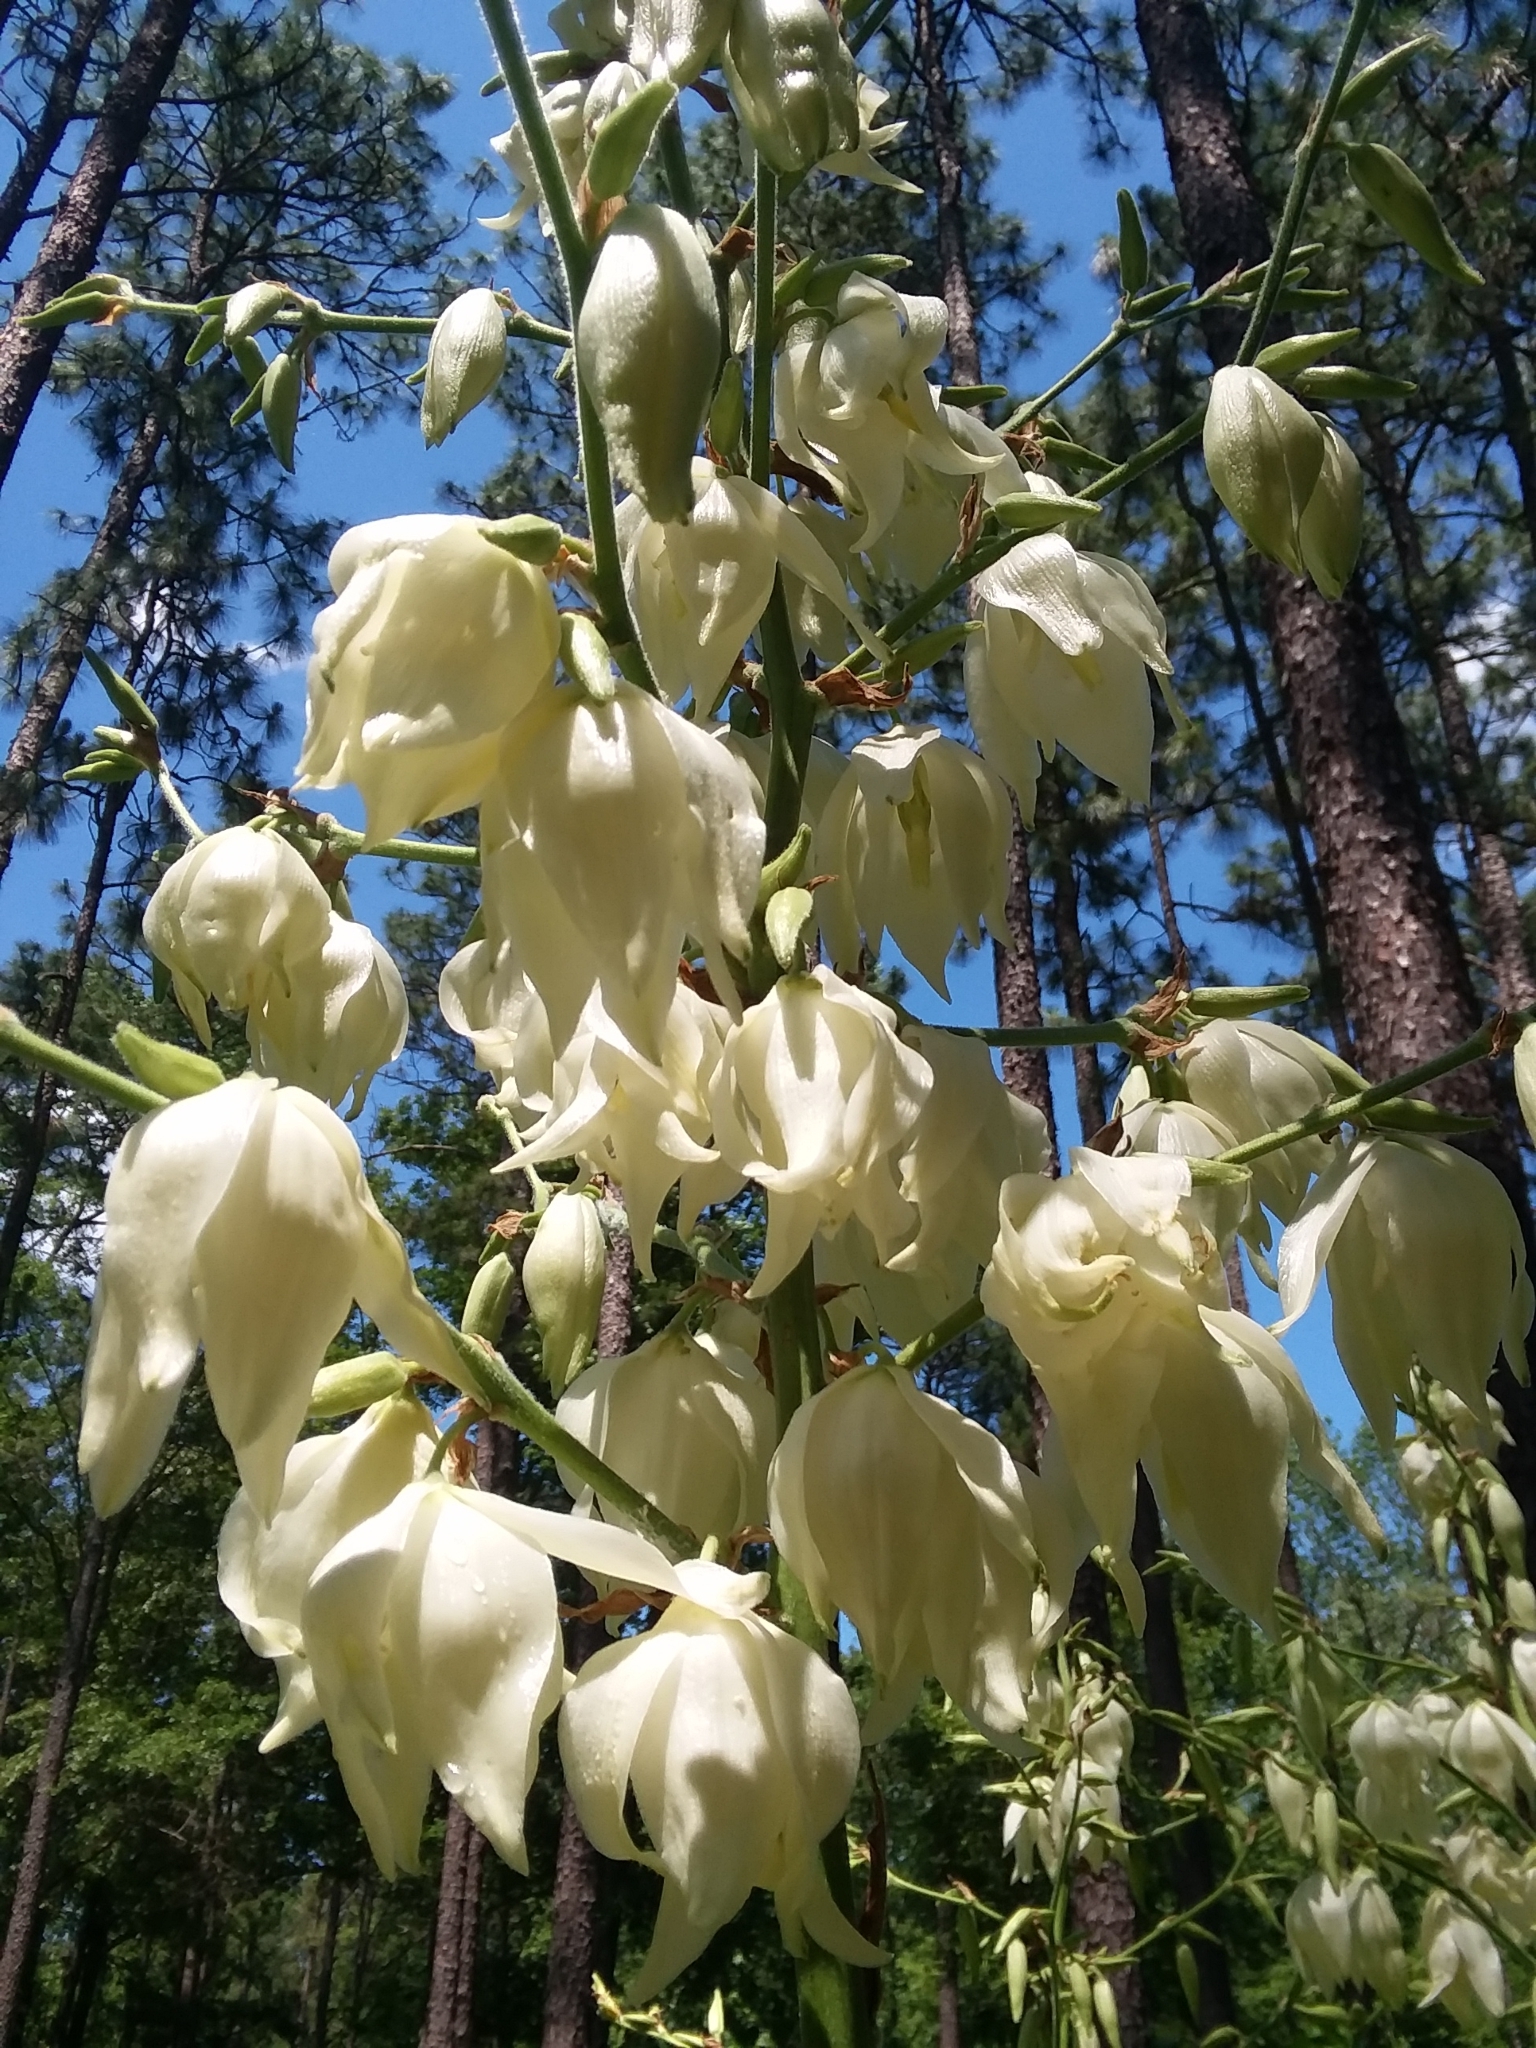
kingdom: Plantae
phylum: Tracheophyta
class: Liliopsida
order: Asparagales
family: Asparagaceae
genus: Yucca
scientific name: Yucca flaccida
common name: Adam's-needle
